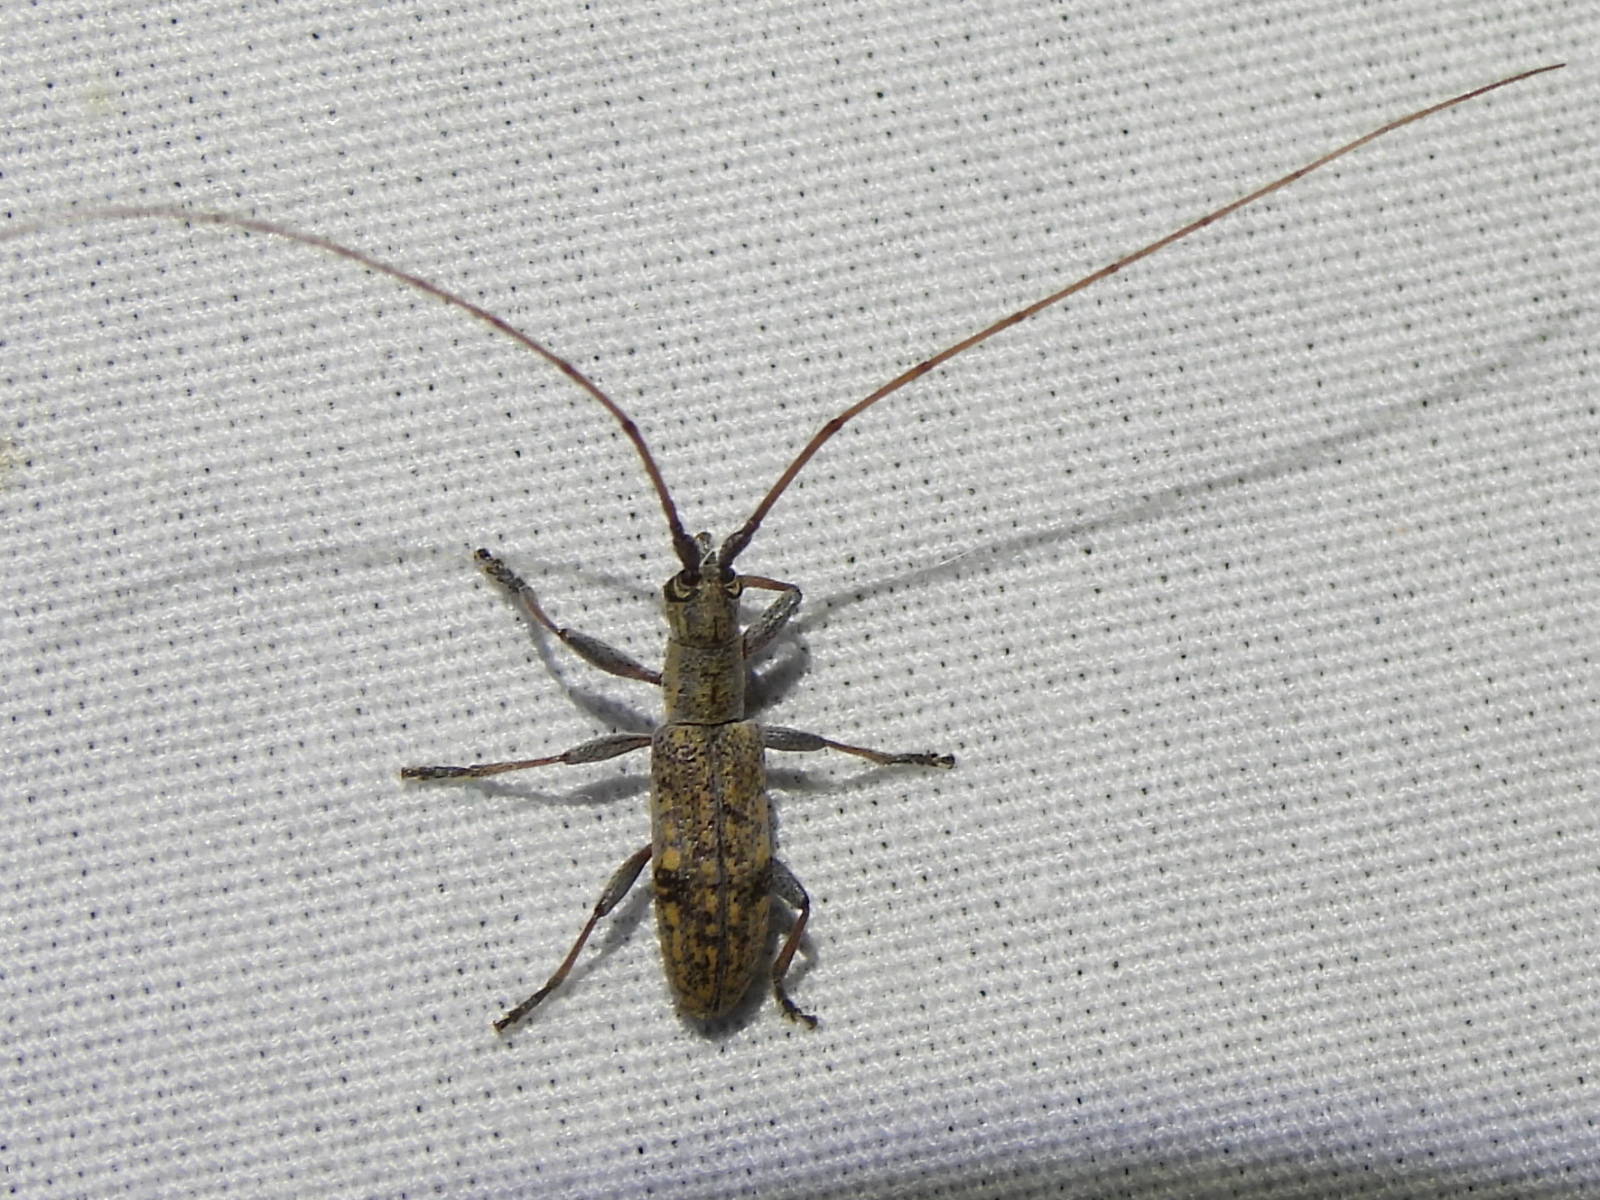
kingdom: Animalia
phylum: Arthropoda
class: Insecta
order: Coleoptera
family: Cerambycidae
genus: Dorcaschema
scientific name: Dorcaschema alternatum
